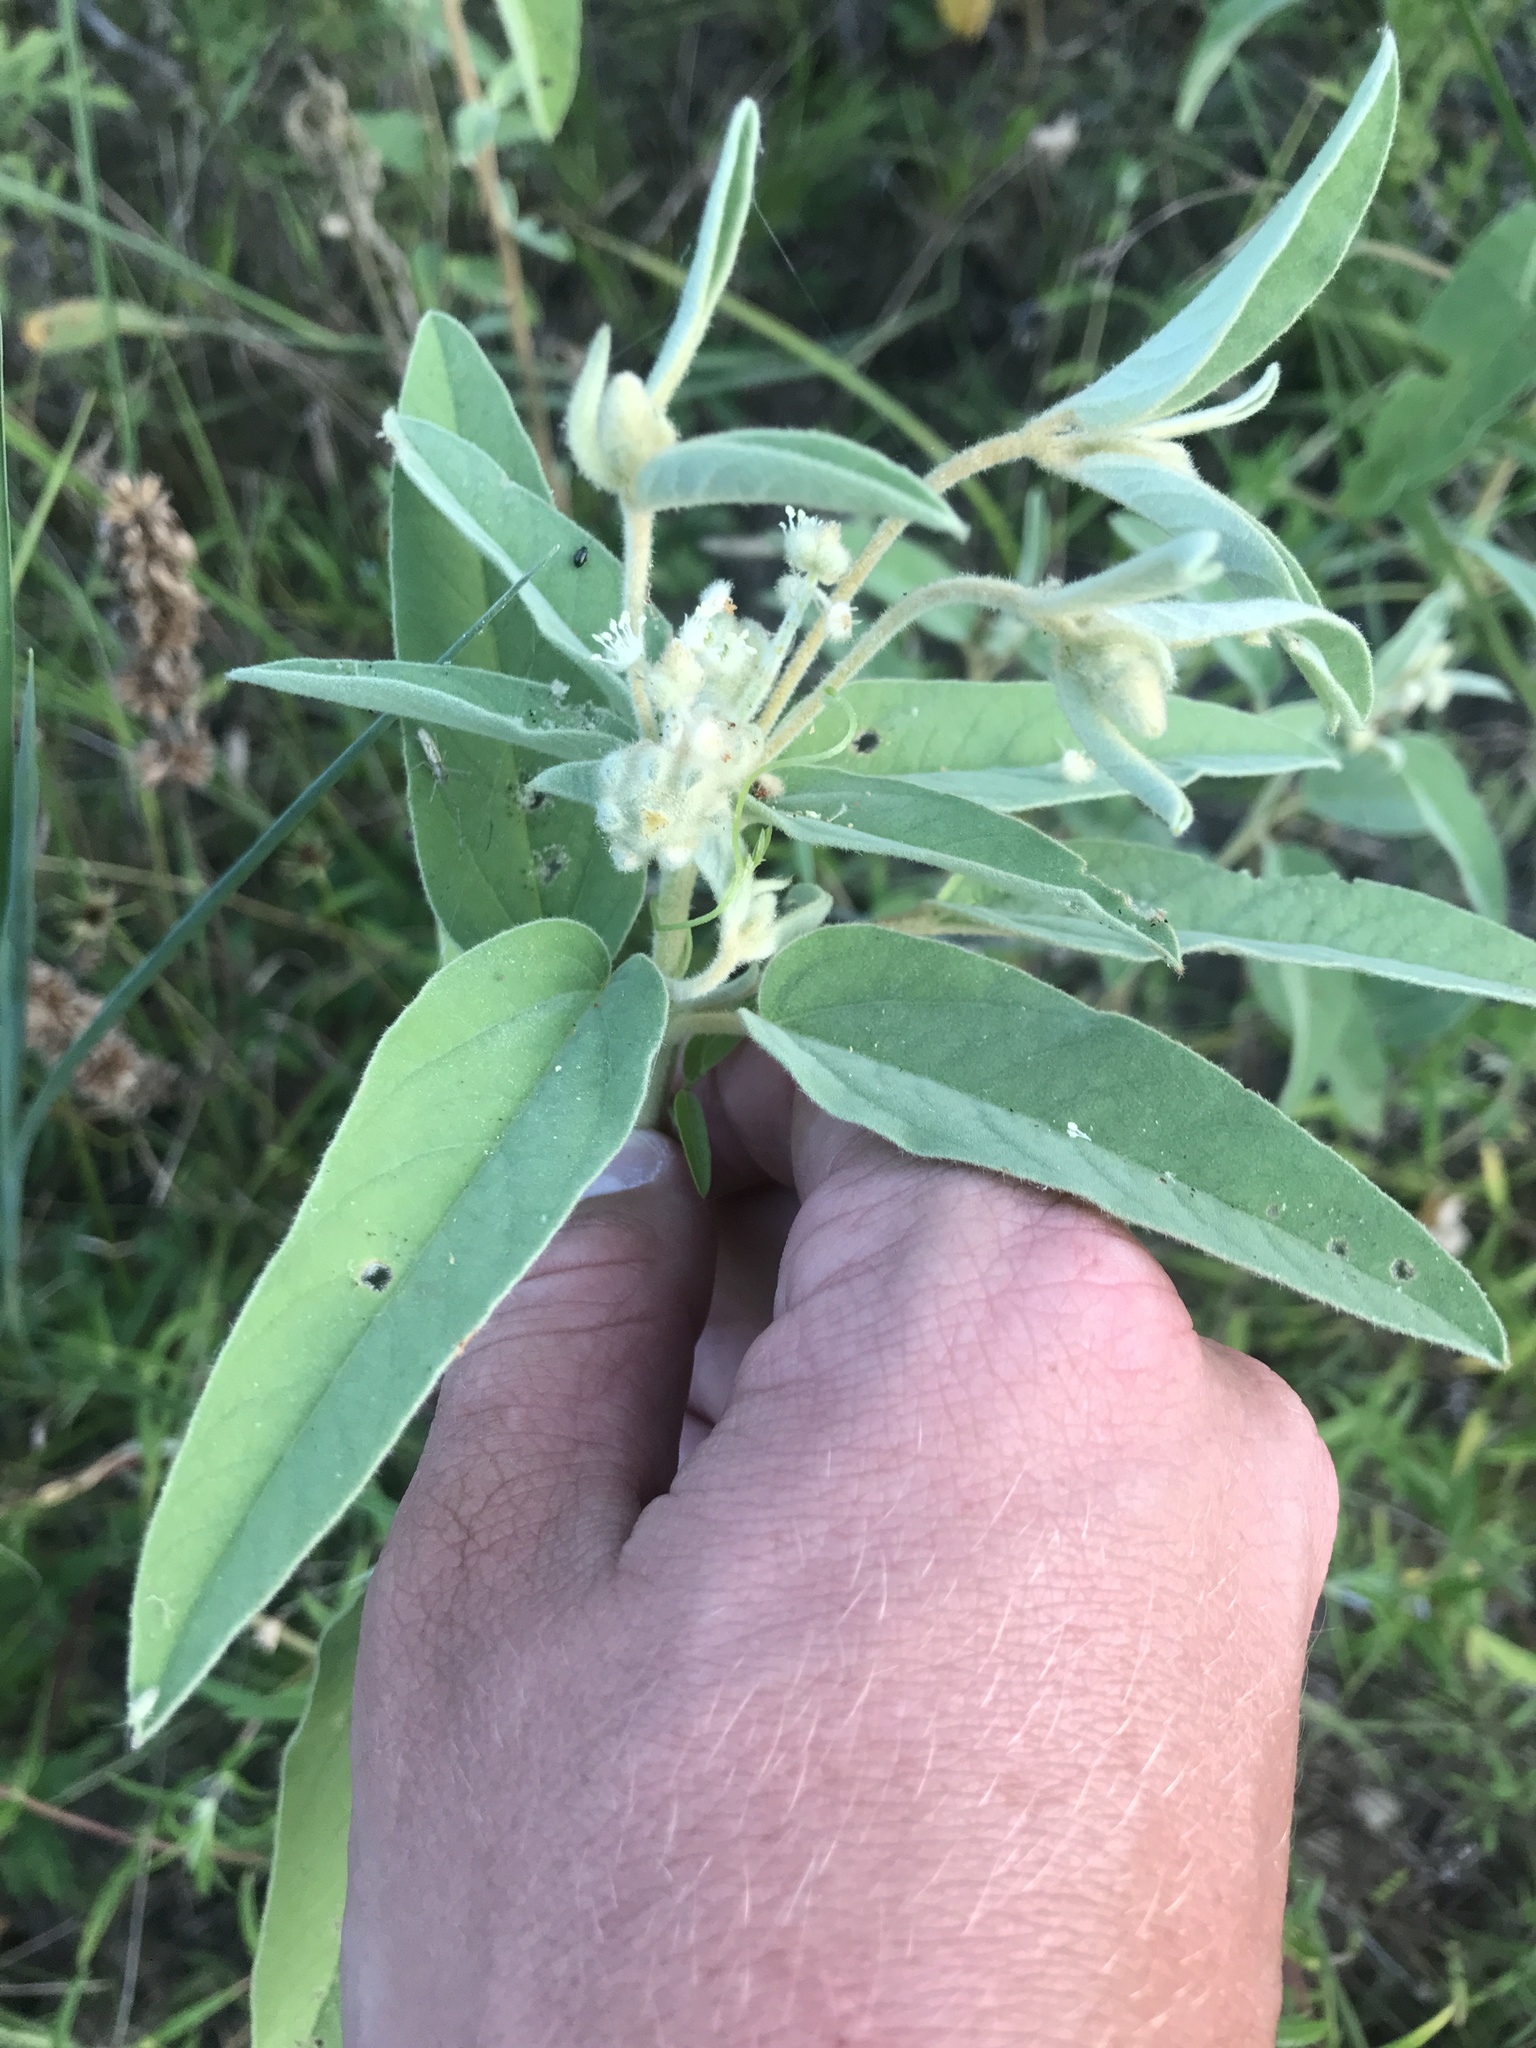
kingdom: Plantae
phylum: Tracheophyta
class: Magnoliopsida
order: Malpighiales
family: Euphorbiaceae
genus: Croton
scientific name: Croton lindheimeri
